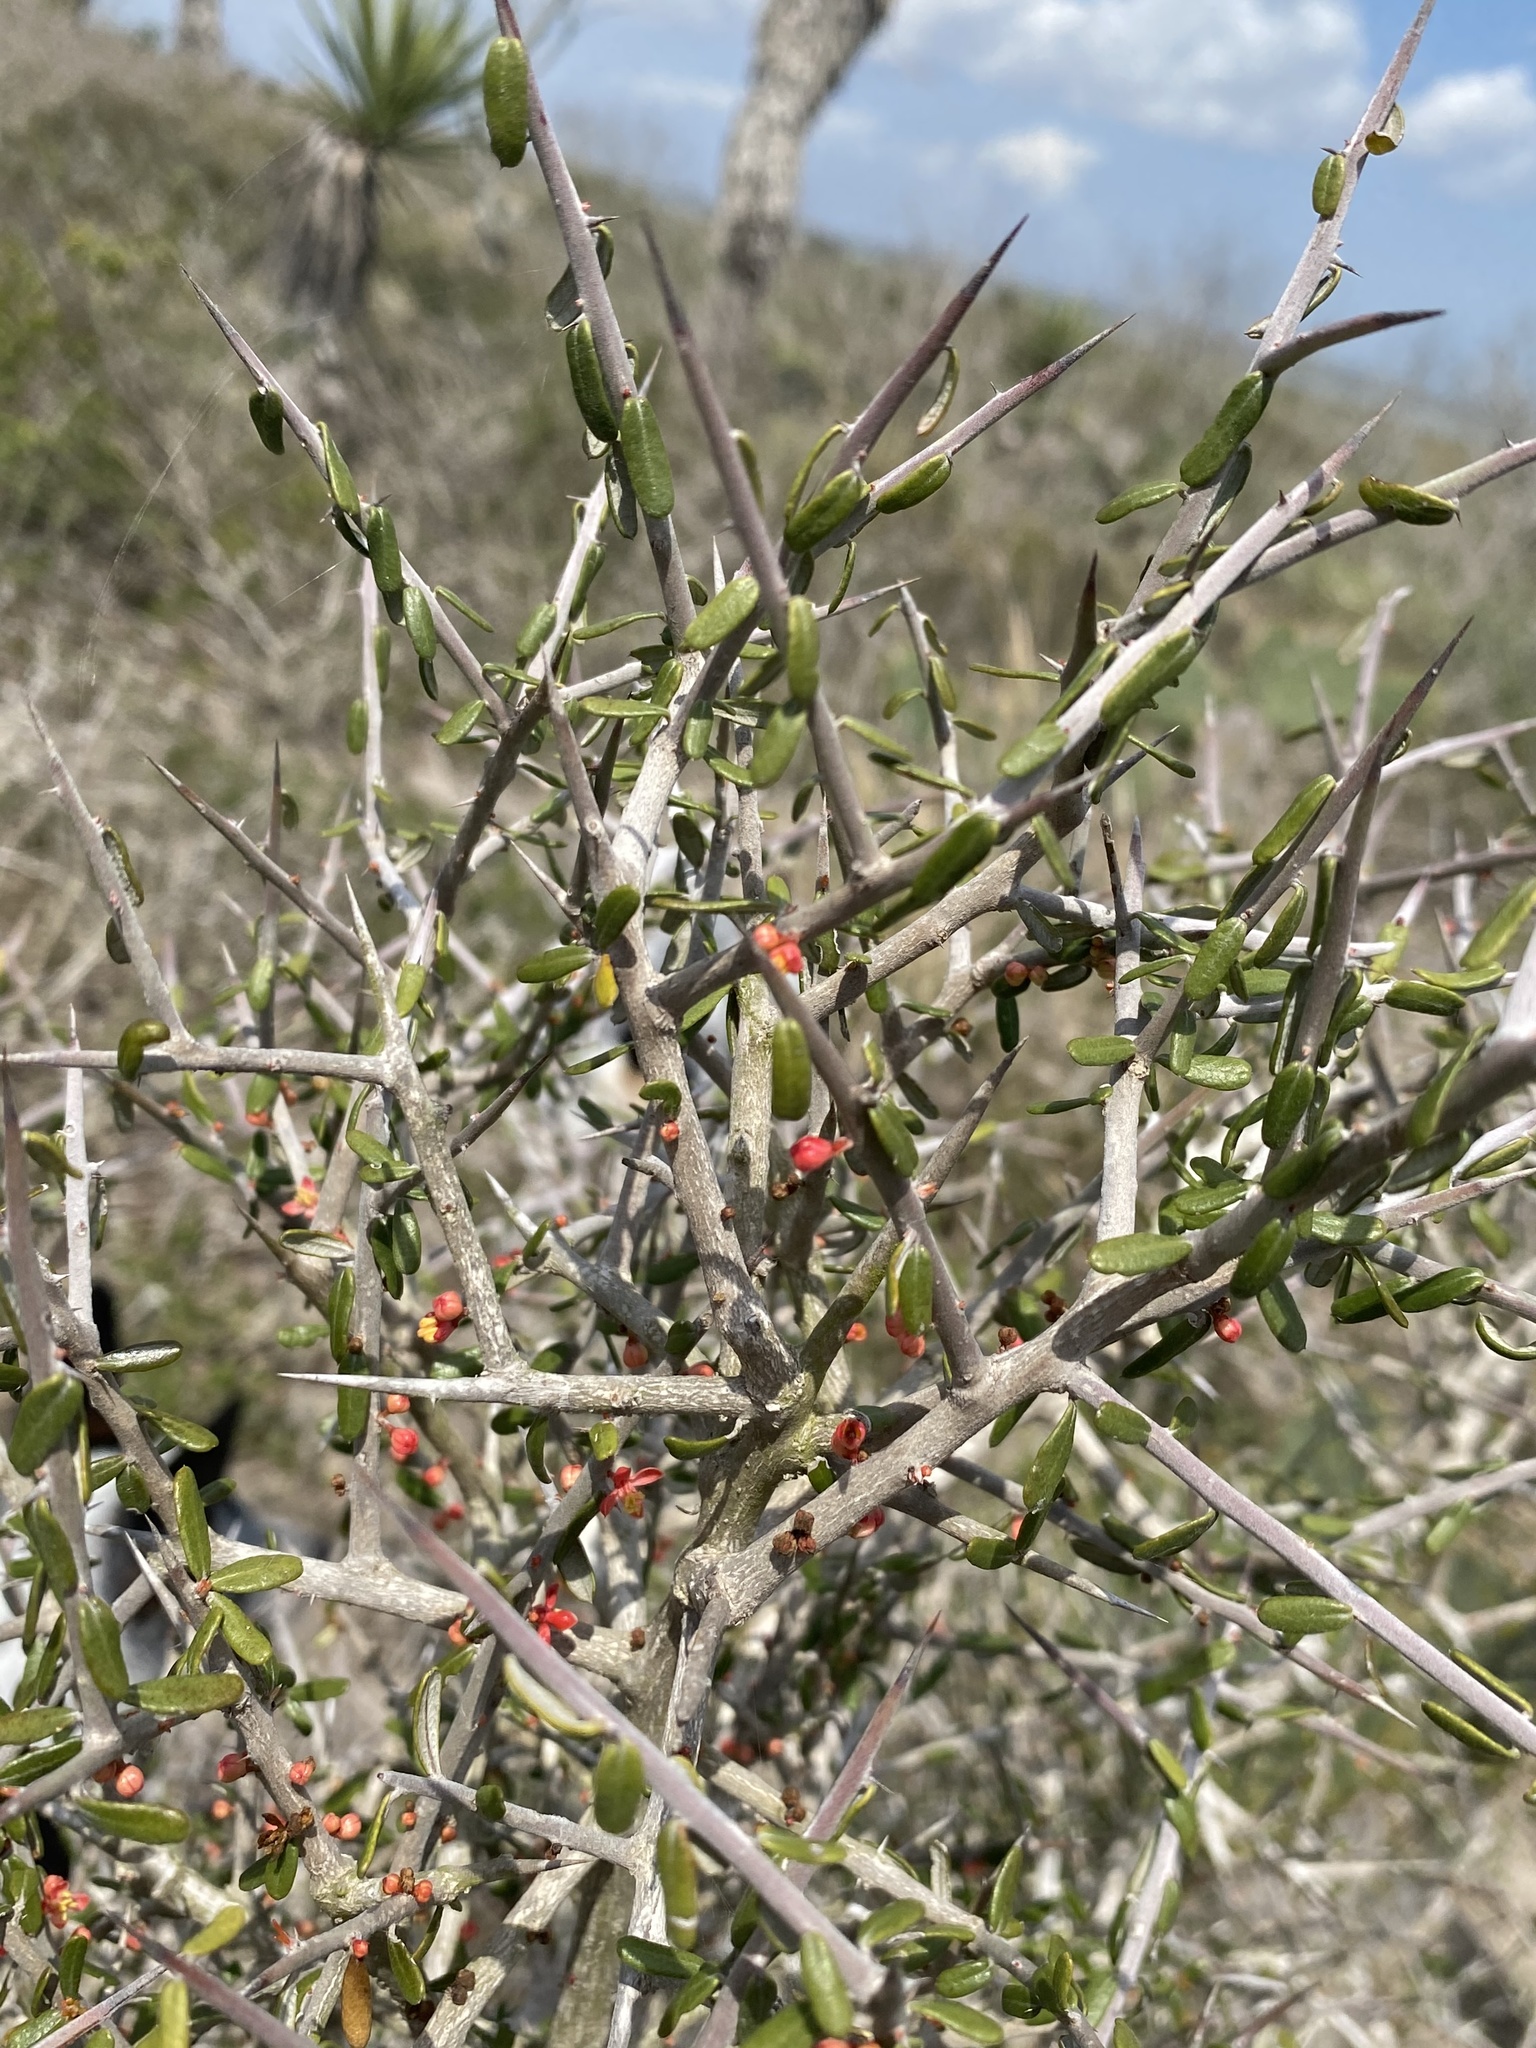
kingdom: Plantae
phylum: Tracheophyta
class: Magnoliopsida
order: Sapindales
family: Simaroubaceae
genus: Castela
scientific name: Castela erecta
